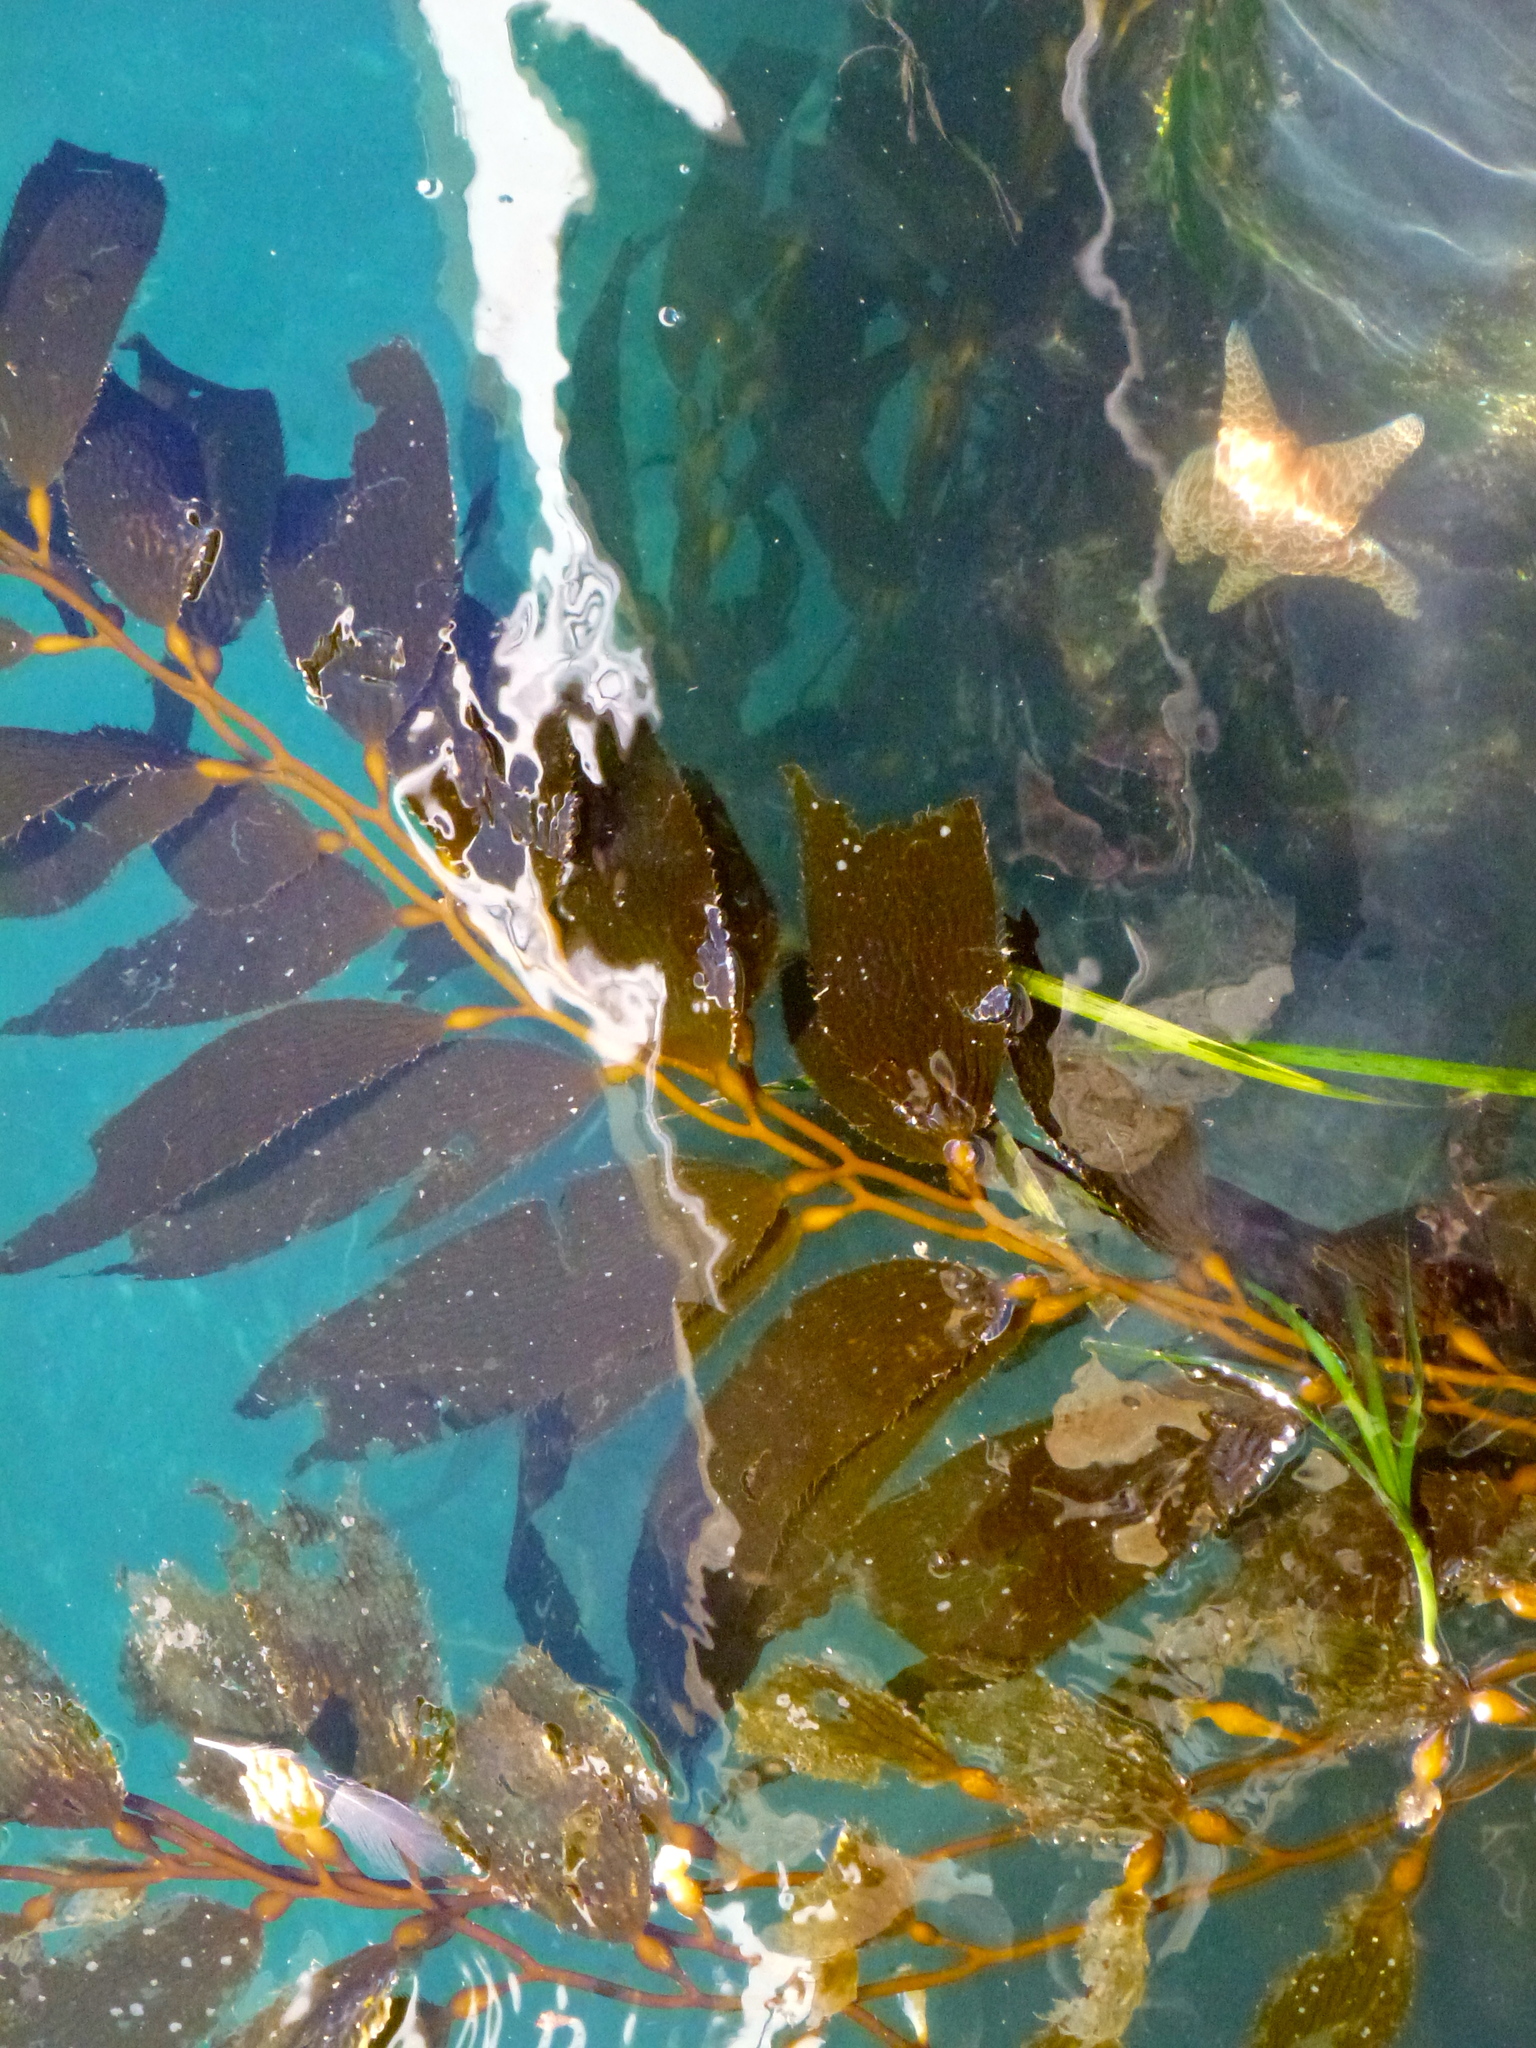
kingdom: Animalia
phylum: Echinodermata
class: Asteroidea
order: Forcipulatida
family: Asteriidae
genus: Pisaster
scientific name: Pisaster ochraceus
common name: Ochre stars
